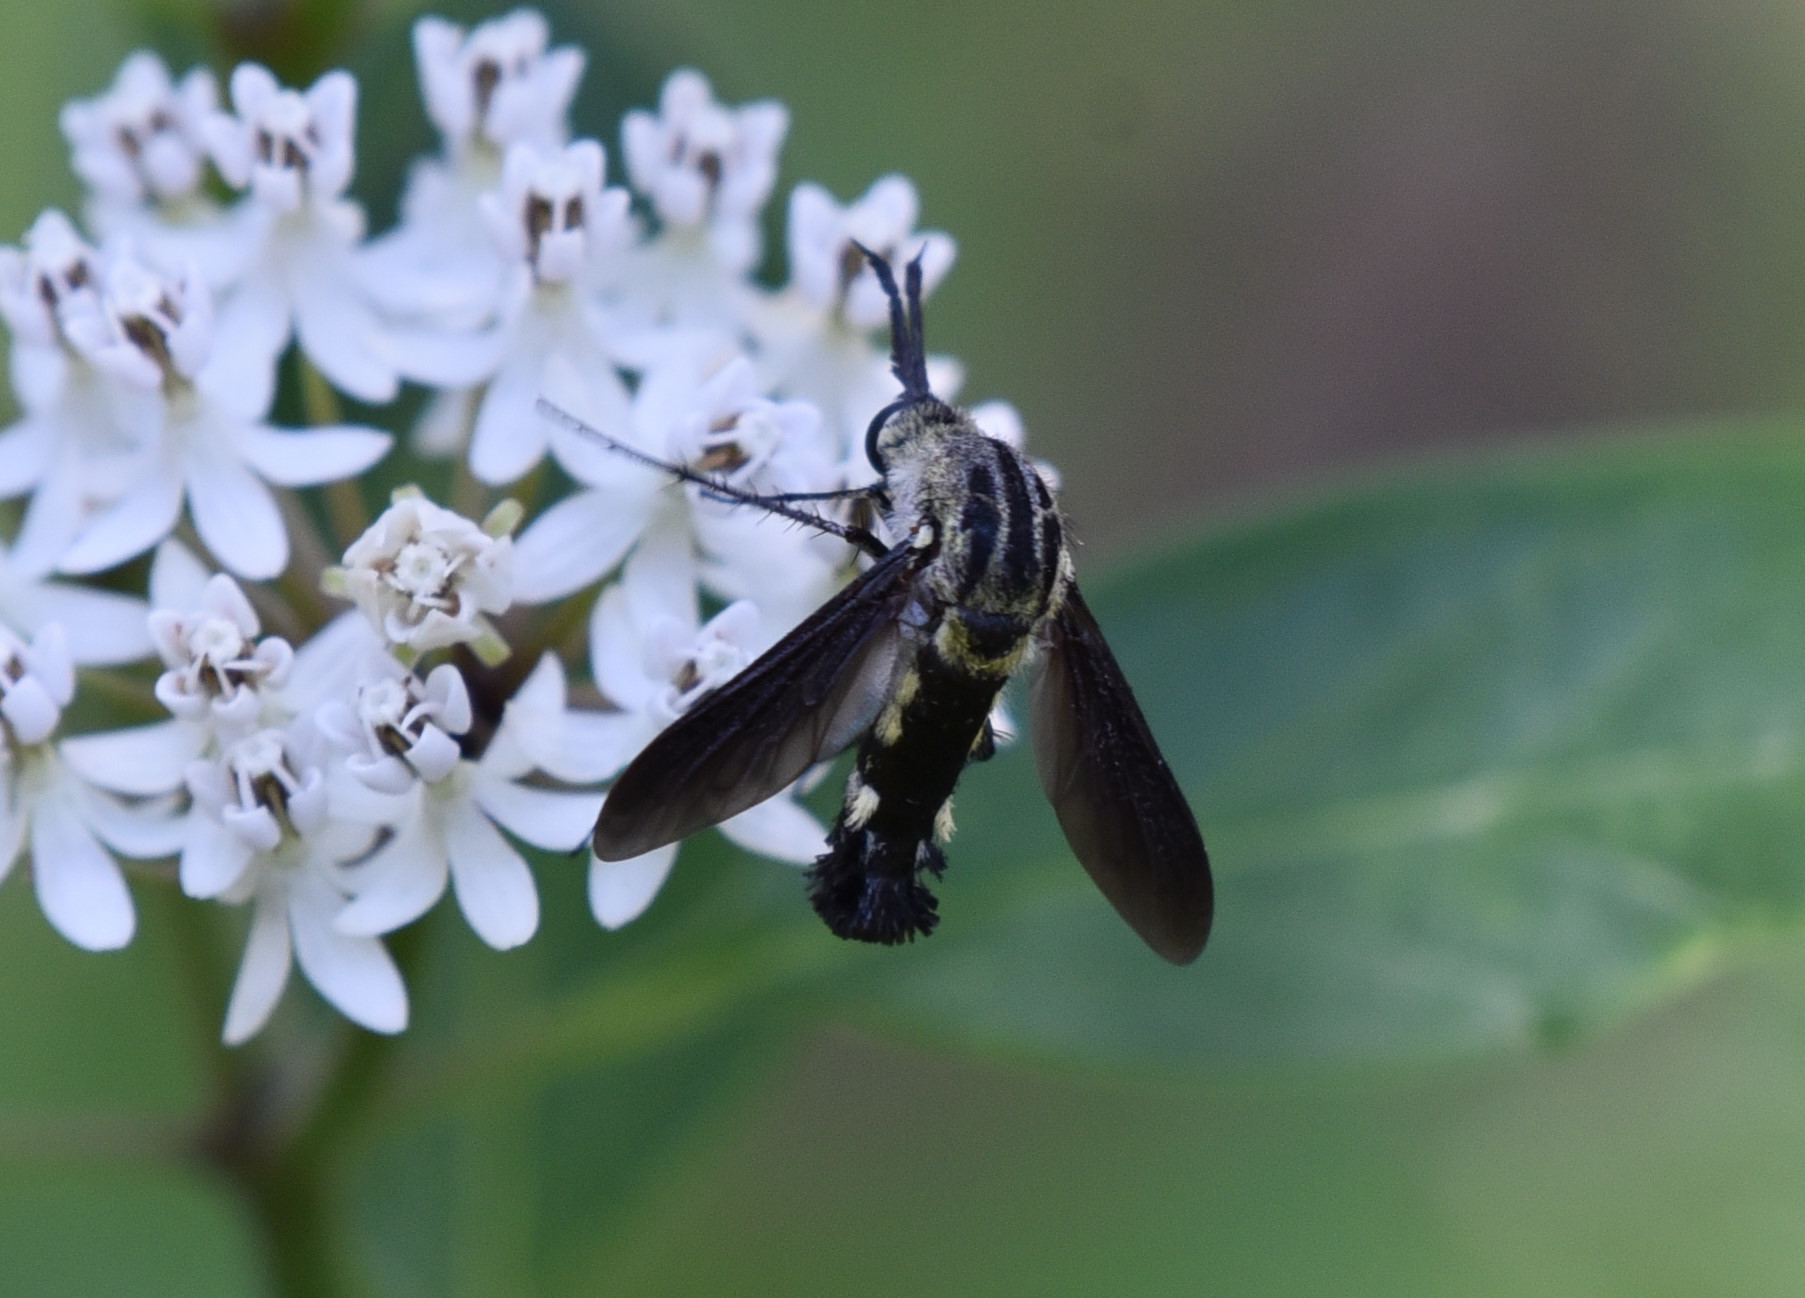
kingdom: Animalia
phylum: Arthropoda
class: Insecta
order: Diptera
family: Bombyliidae
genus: Lepidophora
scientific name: Lepidophora lepidocera
